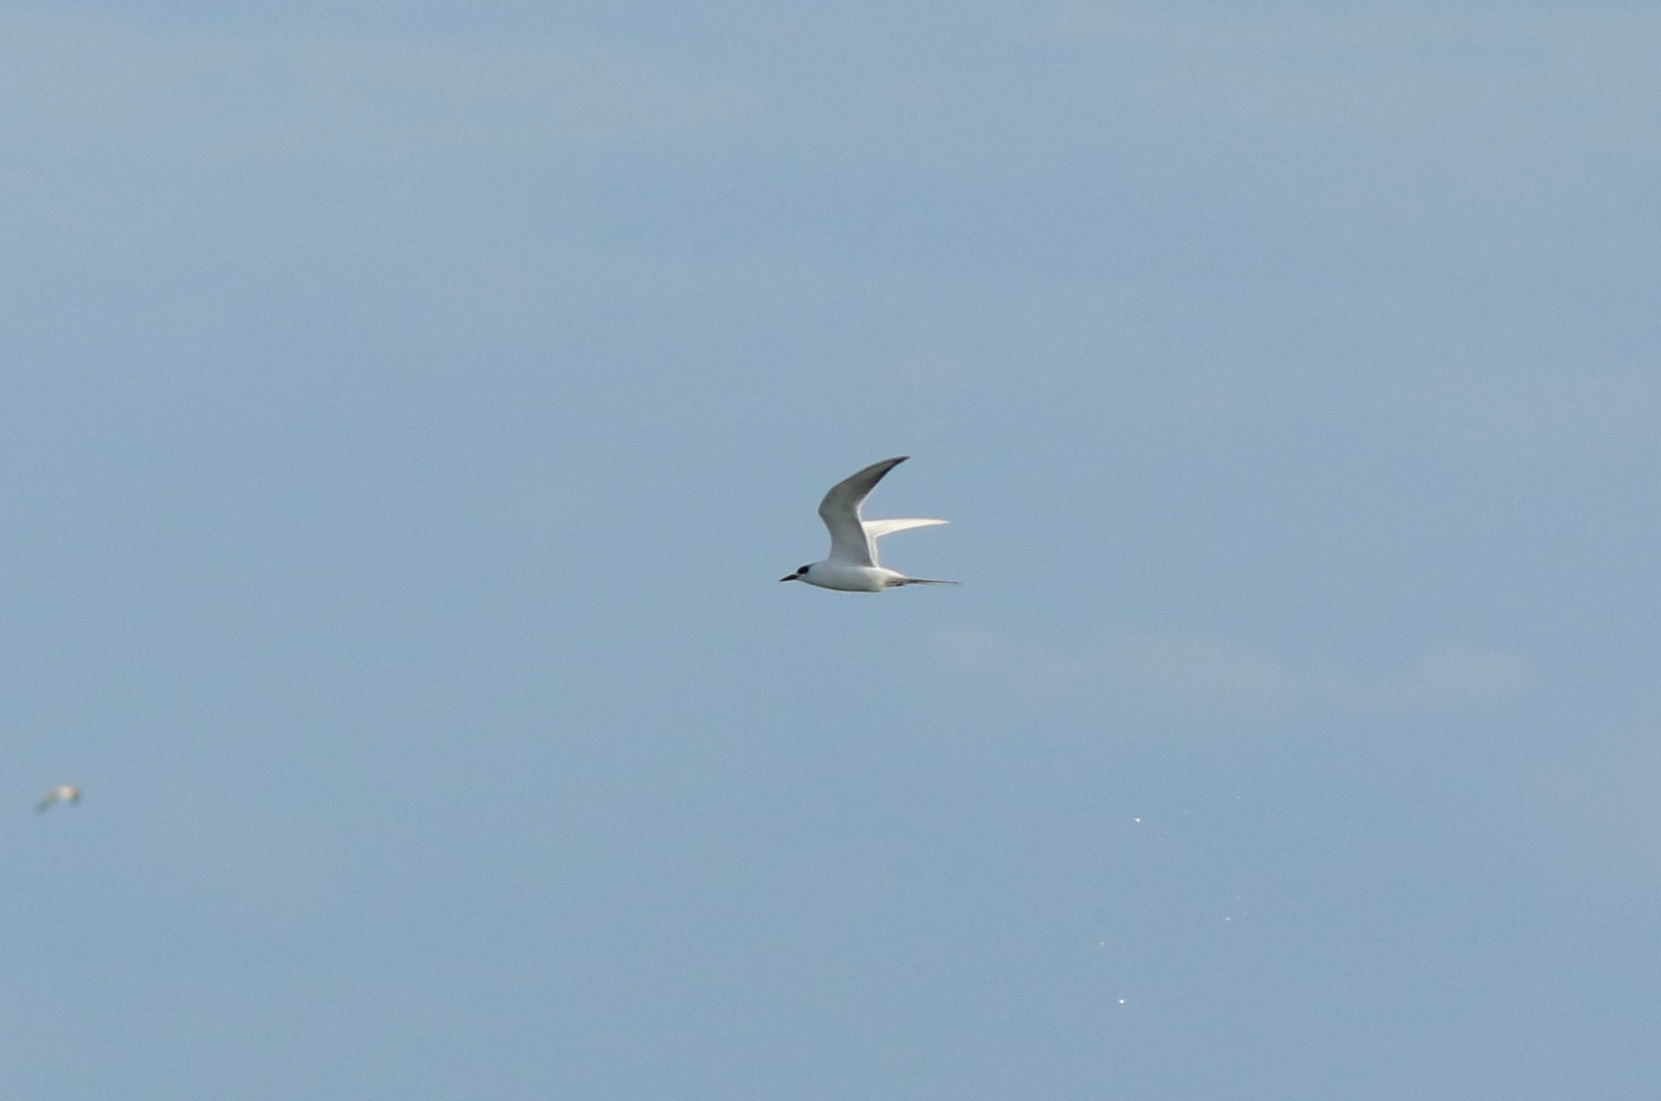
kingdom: Animalia
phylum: Chordata
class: Aves
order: Charadriiformes
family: Laridae
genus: Sterna
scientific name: Sterna forsteri
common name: Forster's tern
